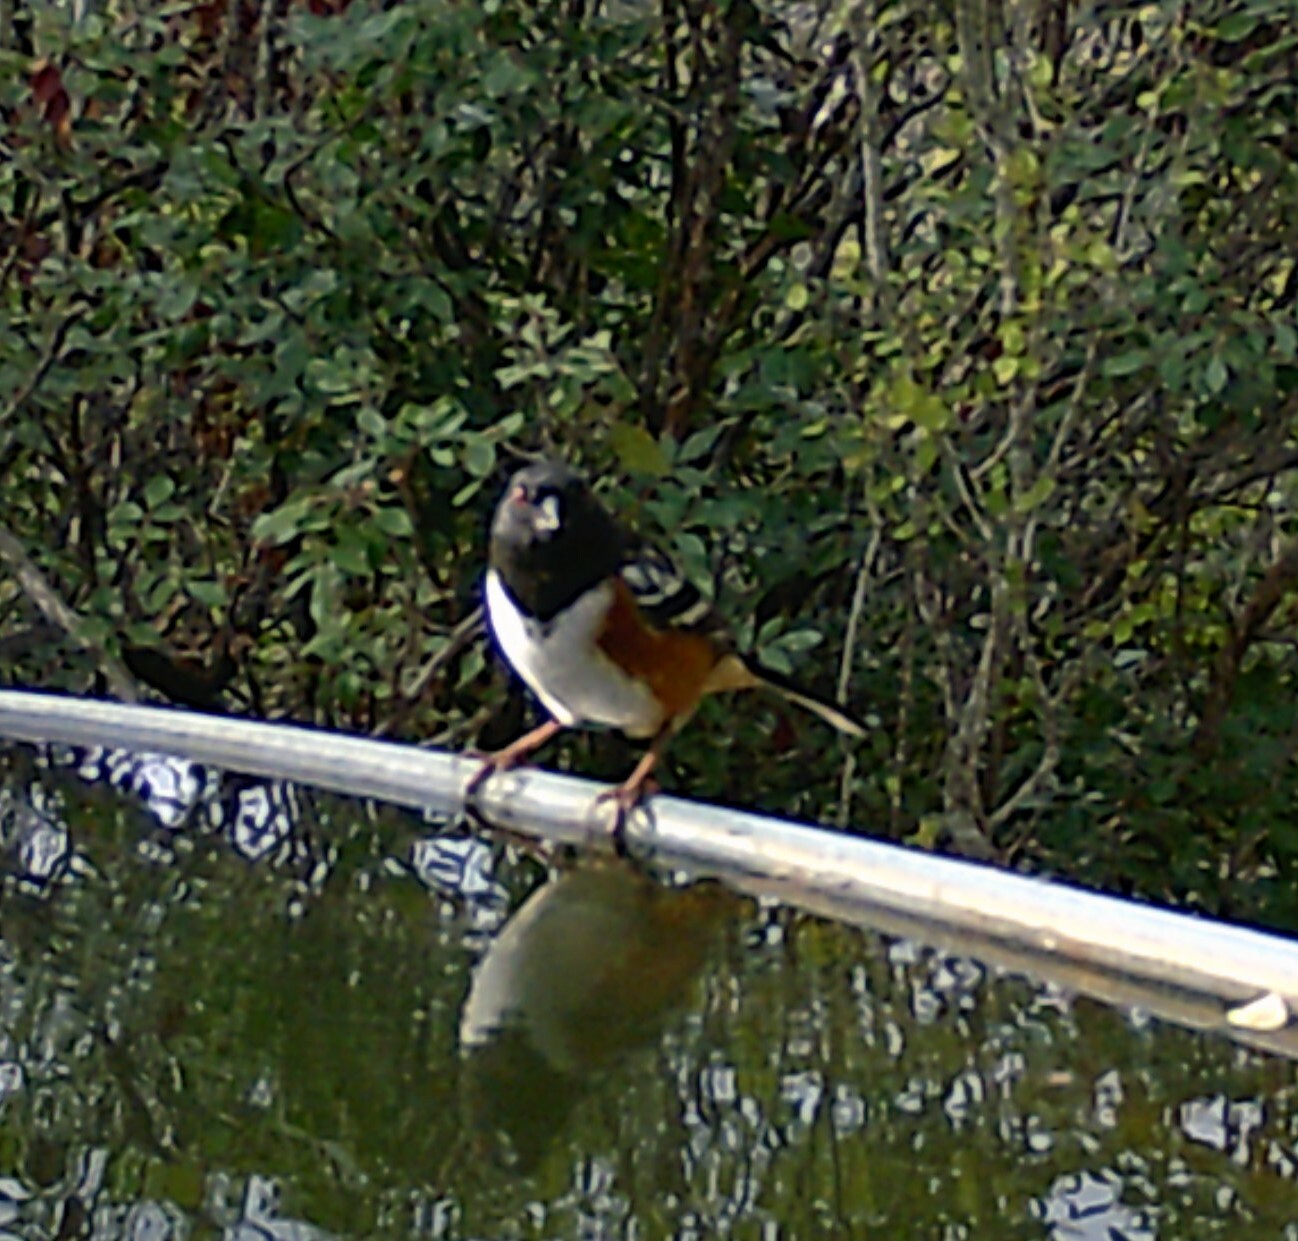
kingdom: Animalia
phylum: Chordata
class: Aves
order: Passeriformes
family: Passerellidae
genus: Pipilo
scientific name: Pipilo maculatus
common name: Spotted towhee
